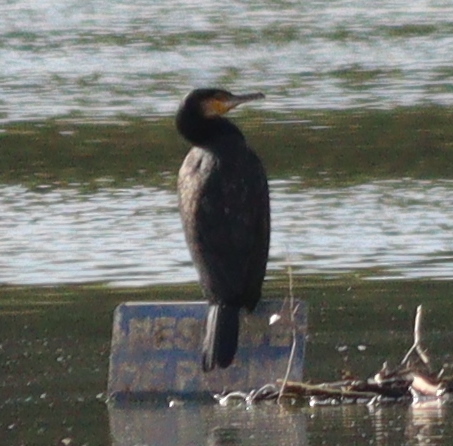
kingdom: Animalia
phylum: Chordata
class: Aves
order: Suliformes
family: Phalacrocoracidae
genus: Phalacrocorax
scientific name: Phalacrocorax carbo
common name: Great cormorant
